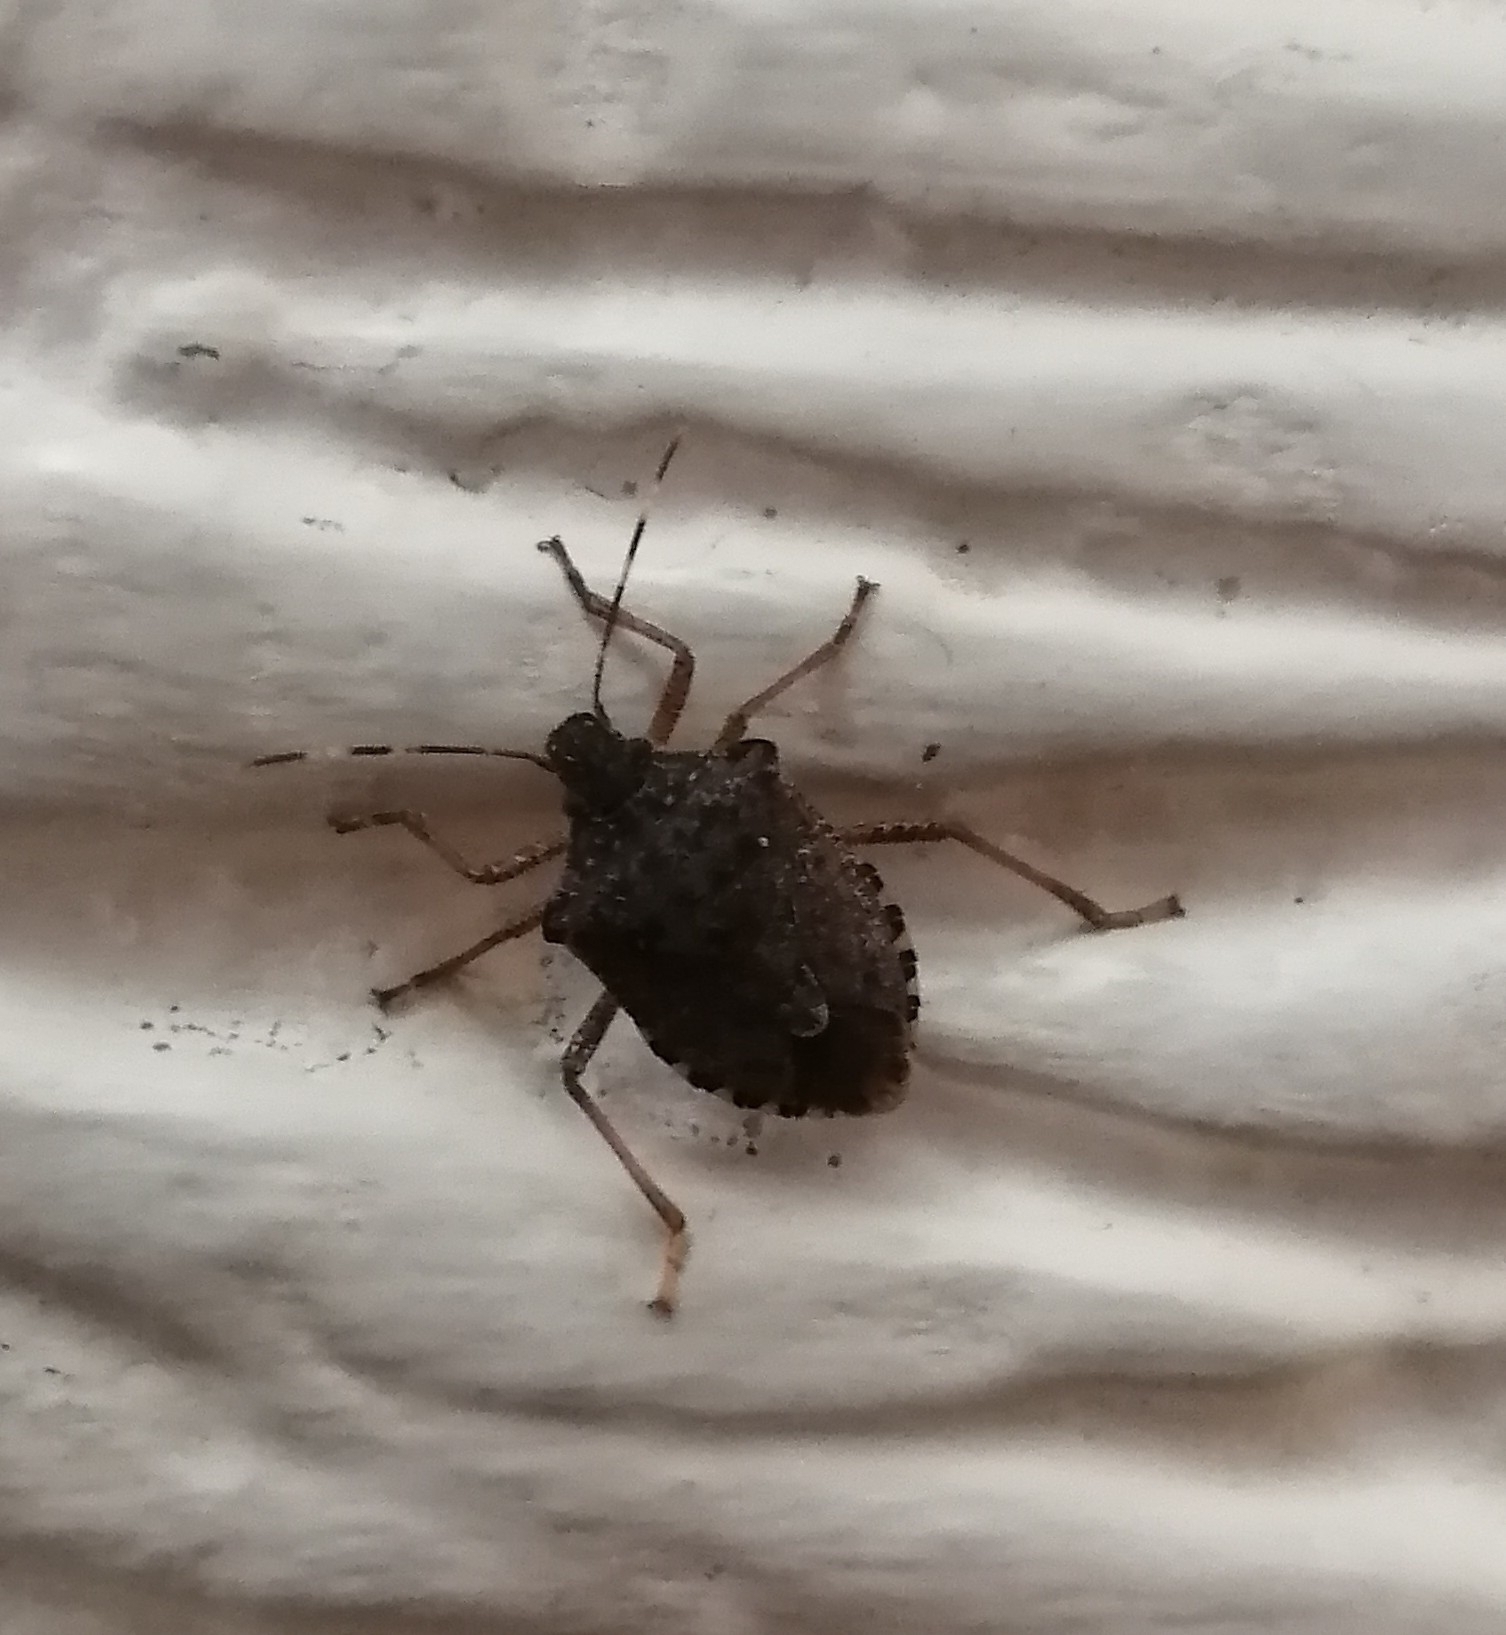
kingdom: Animalia
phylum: Arthropoda
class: Insecta
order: Hemiptera
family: Pentatomidae
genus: Halyomorpha
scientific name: Halyomorpha halys
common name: Brown marmorated stink bug
